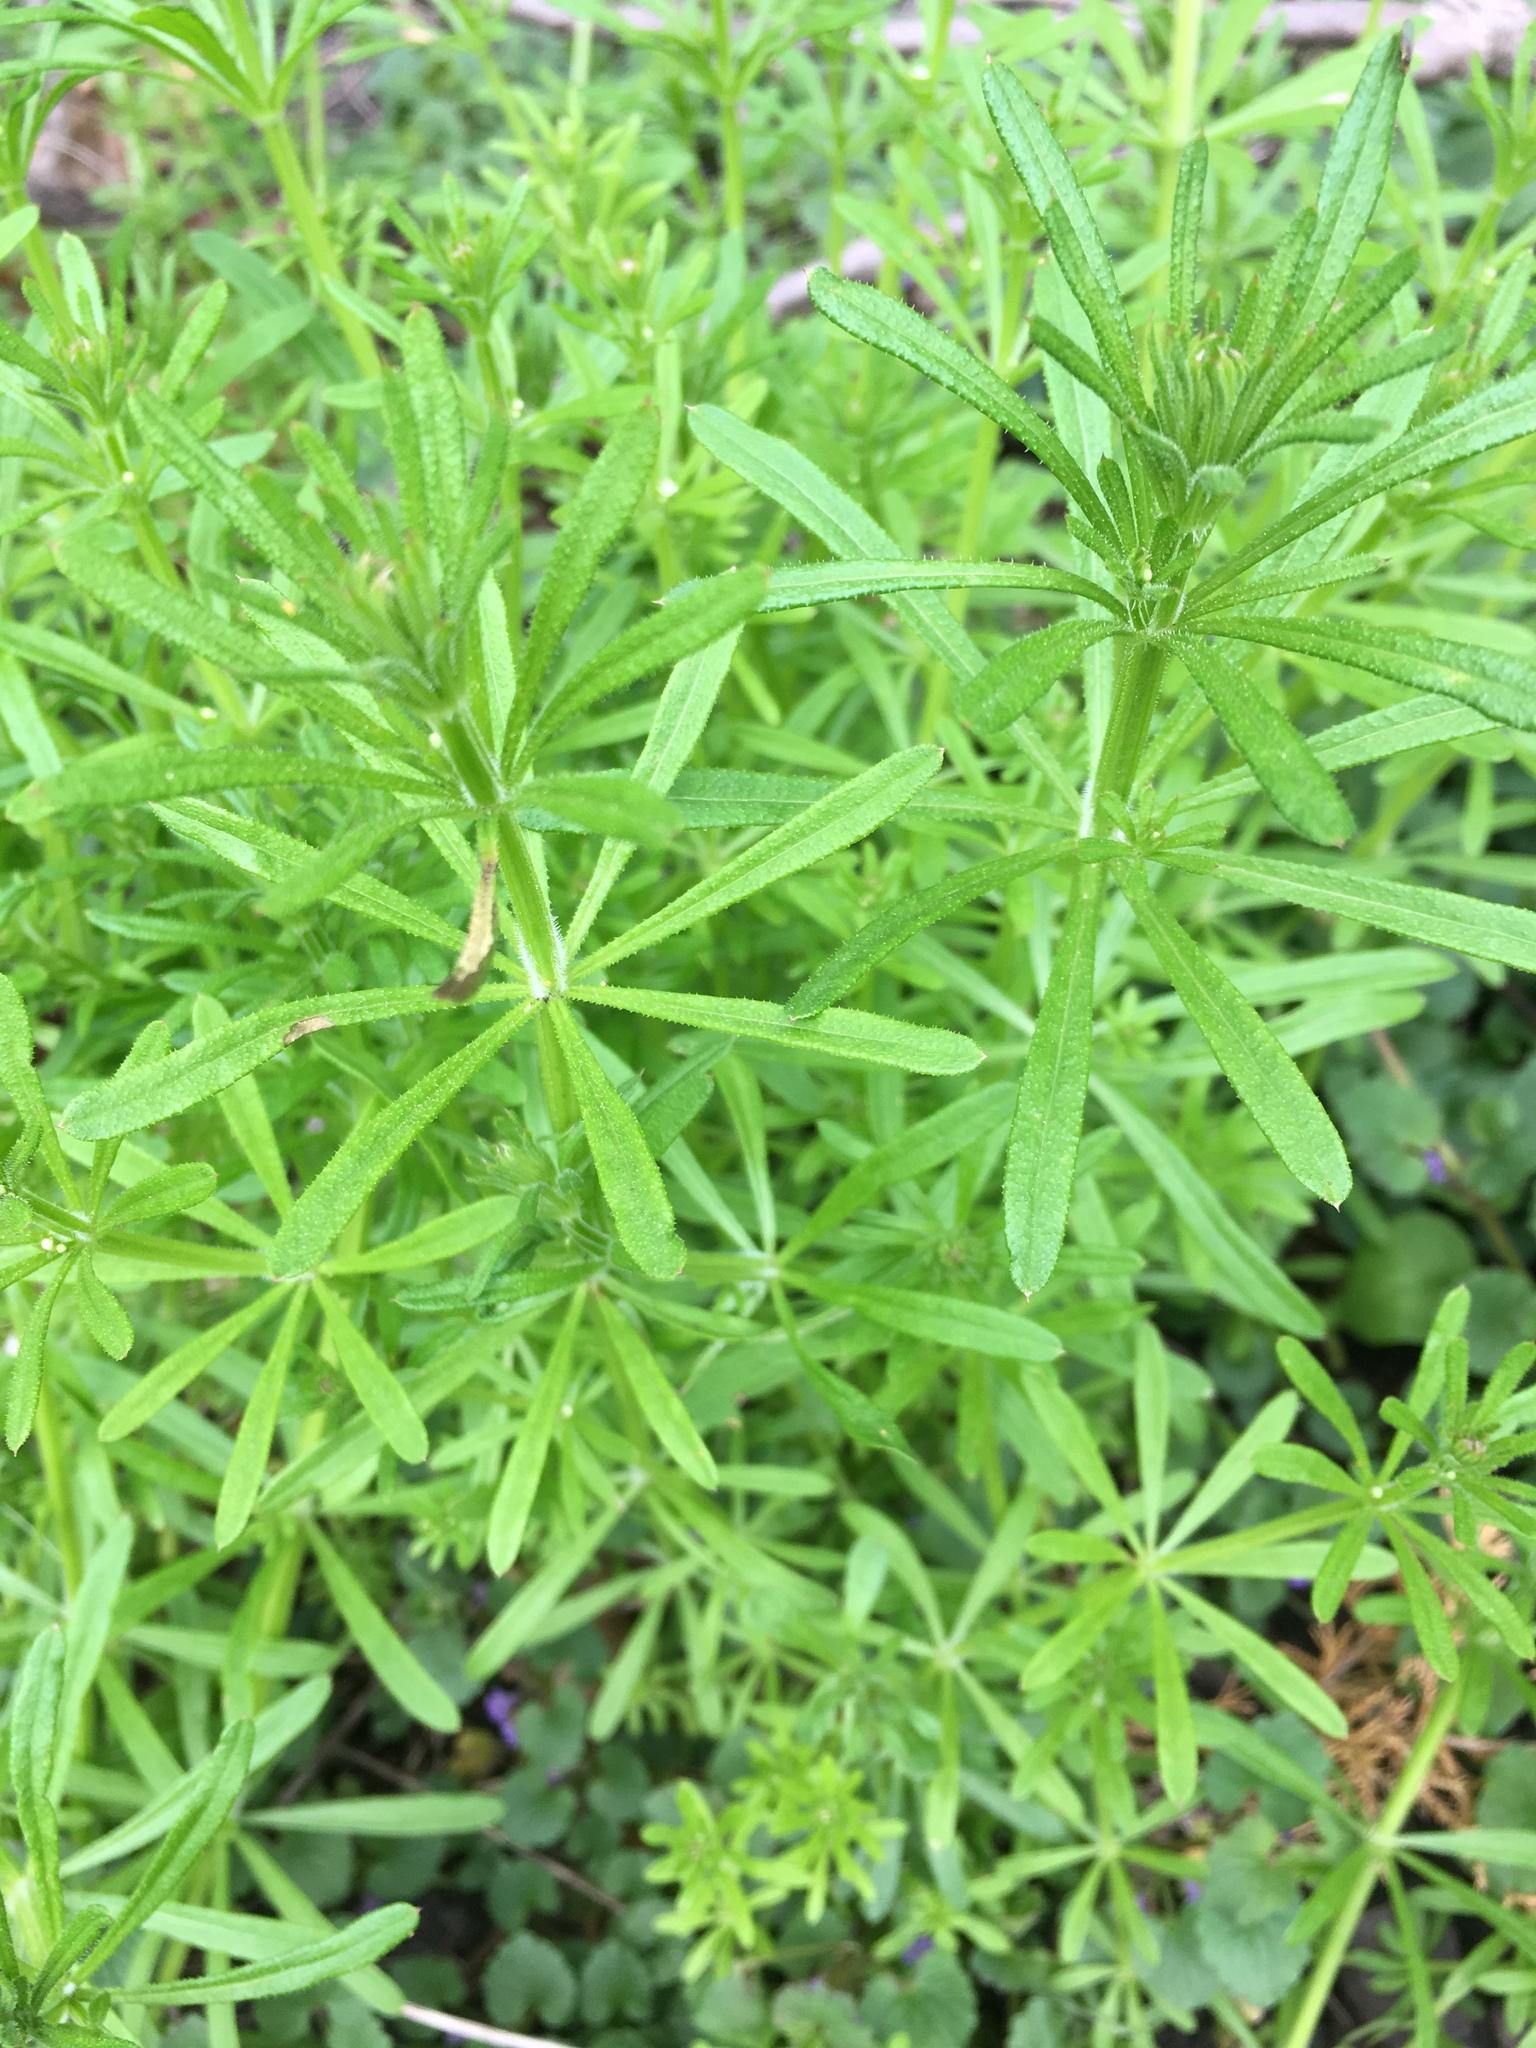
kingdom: Plantae
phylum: Tracheophyta
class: Magnoliopsida
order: Gentianales
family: Rubiaceae
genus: Galium
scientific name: Galium aparine
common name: Cleavers
